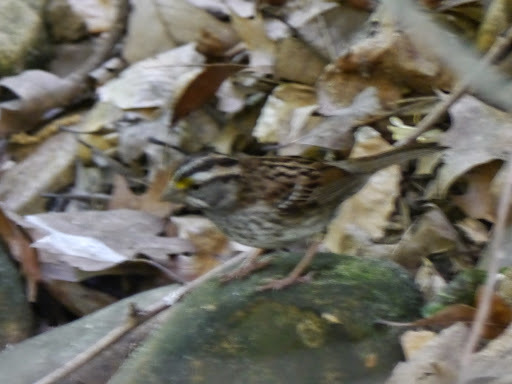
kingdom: Animalia
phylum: Chordata
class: Aves
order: Passeriformes
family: Passerellidae
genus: Zonotrichia
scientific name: Zonotrichia albicollis
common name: White-throated sparrow
